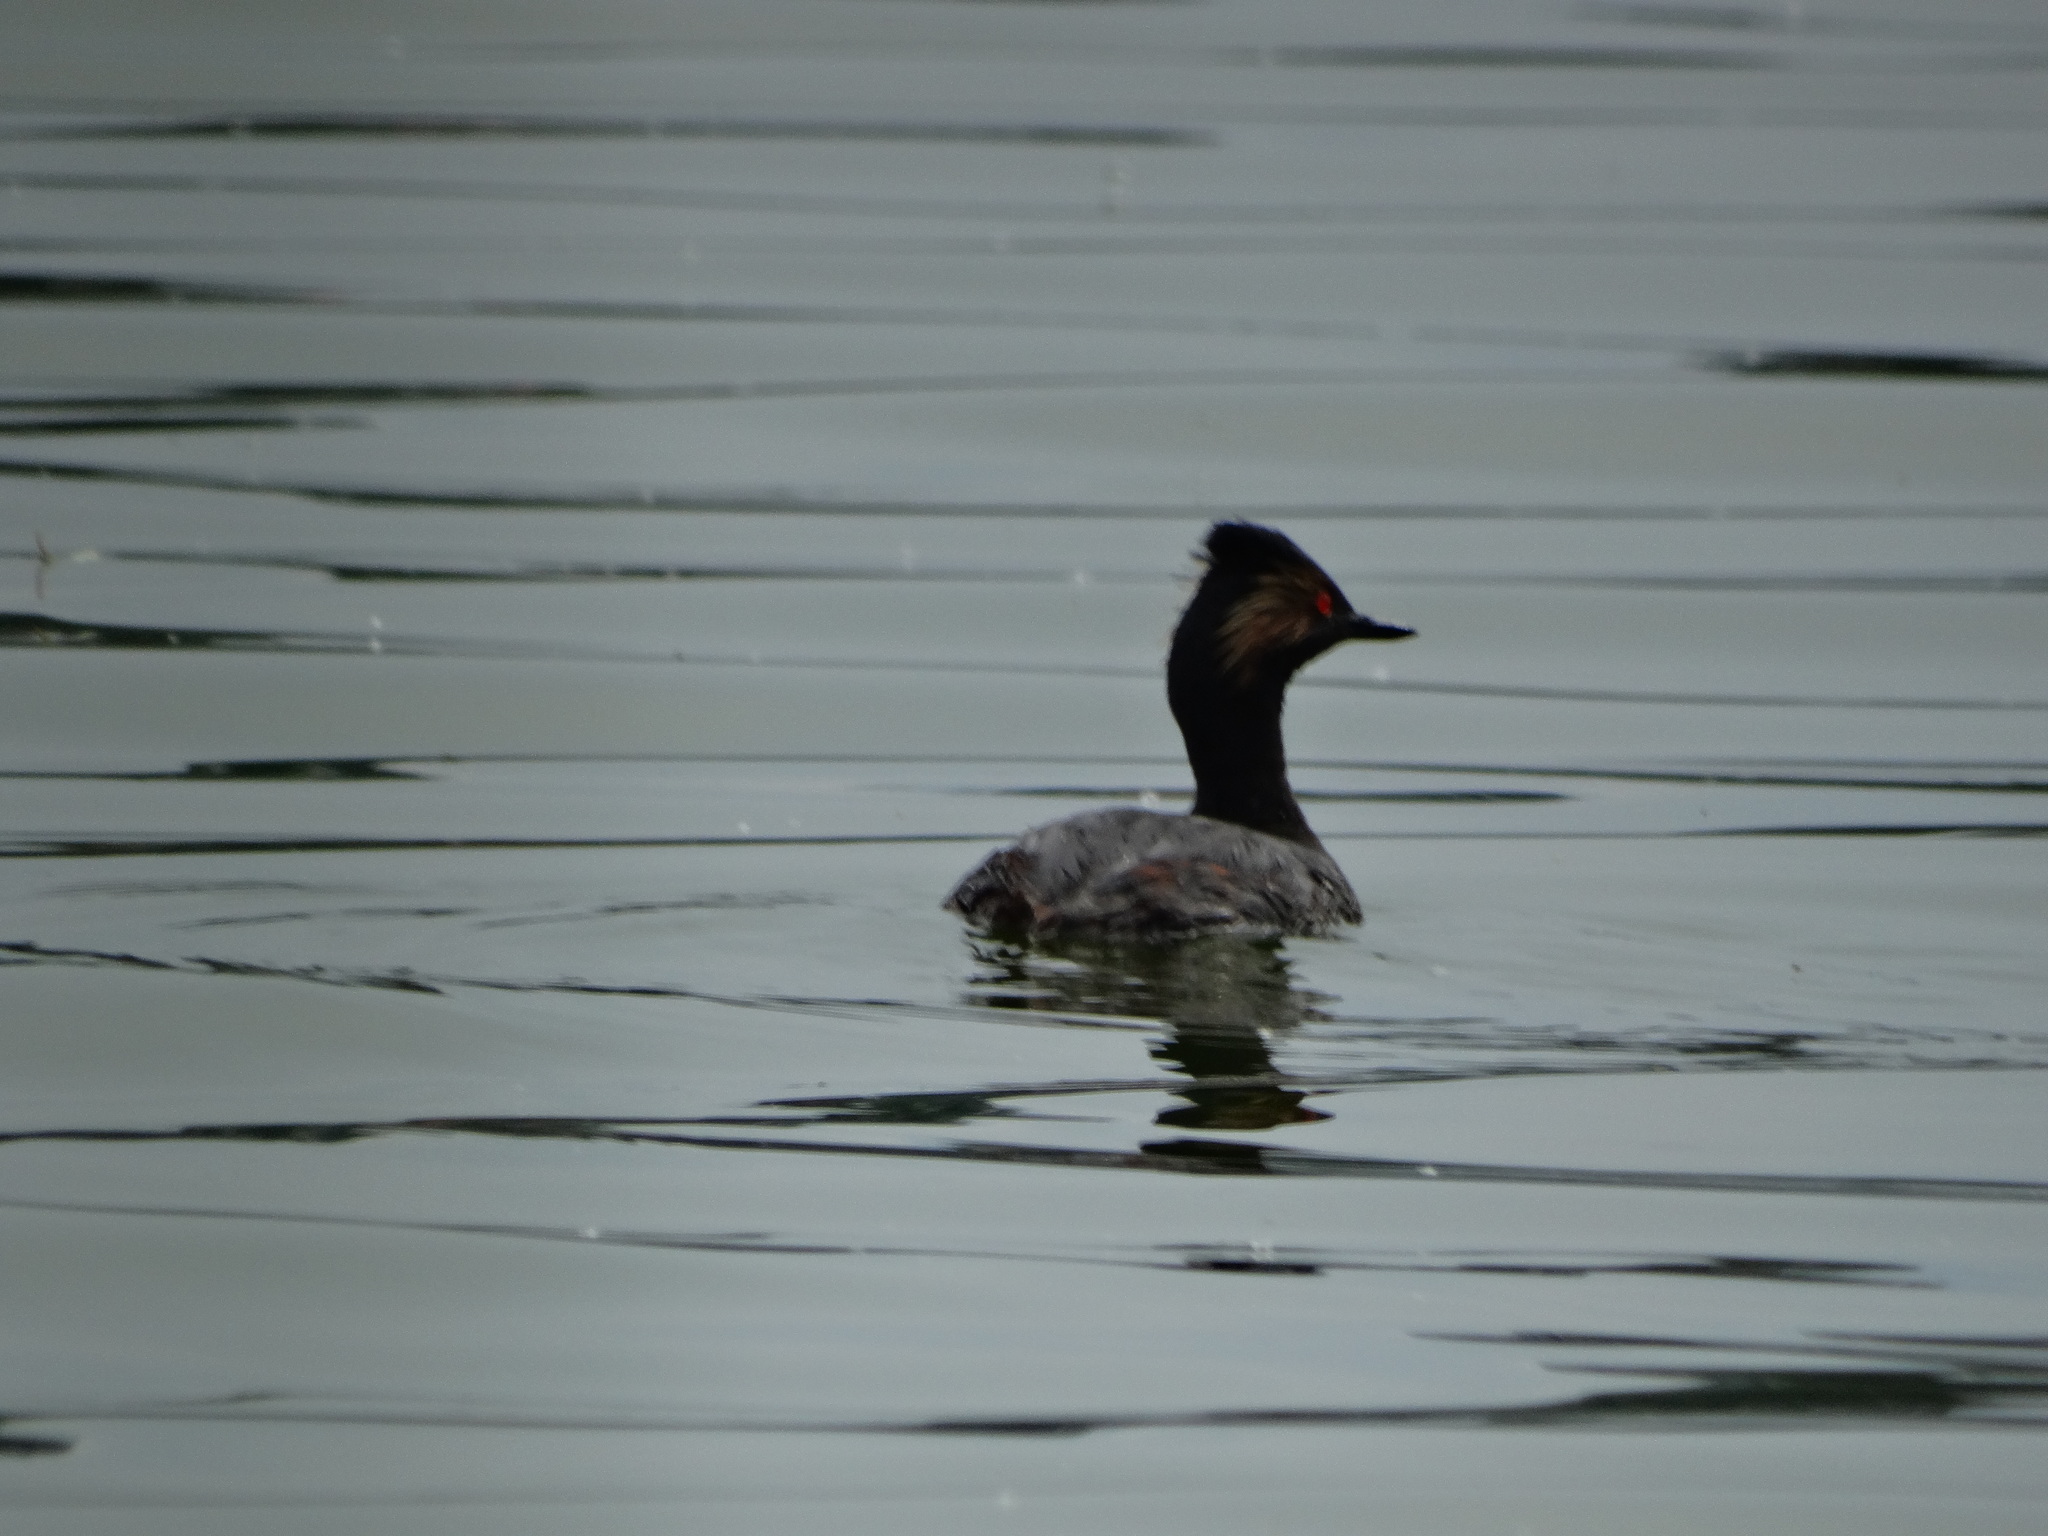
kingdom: Animalia
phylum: Chordata
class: Aves
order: Podicipediformes
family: Podicipedidae
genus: Podiceps
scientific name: Podiceps nigricollis
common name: Black-necked grebe
